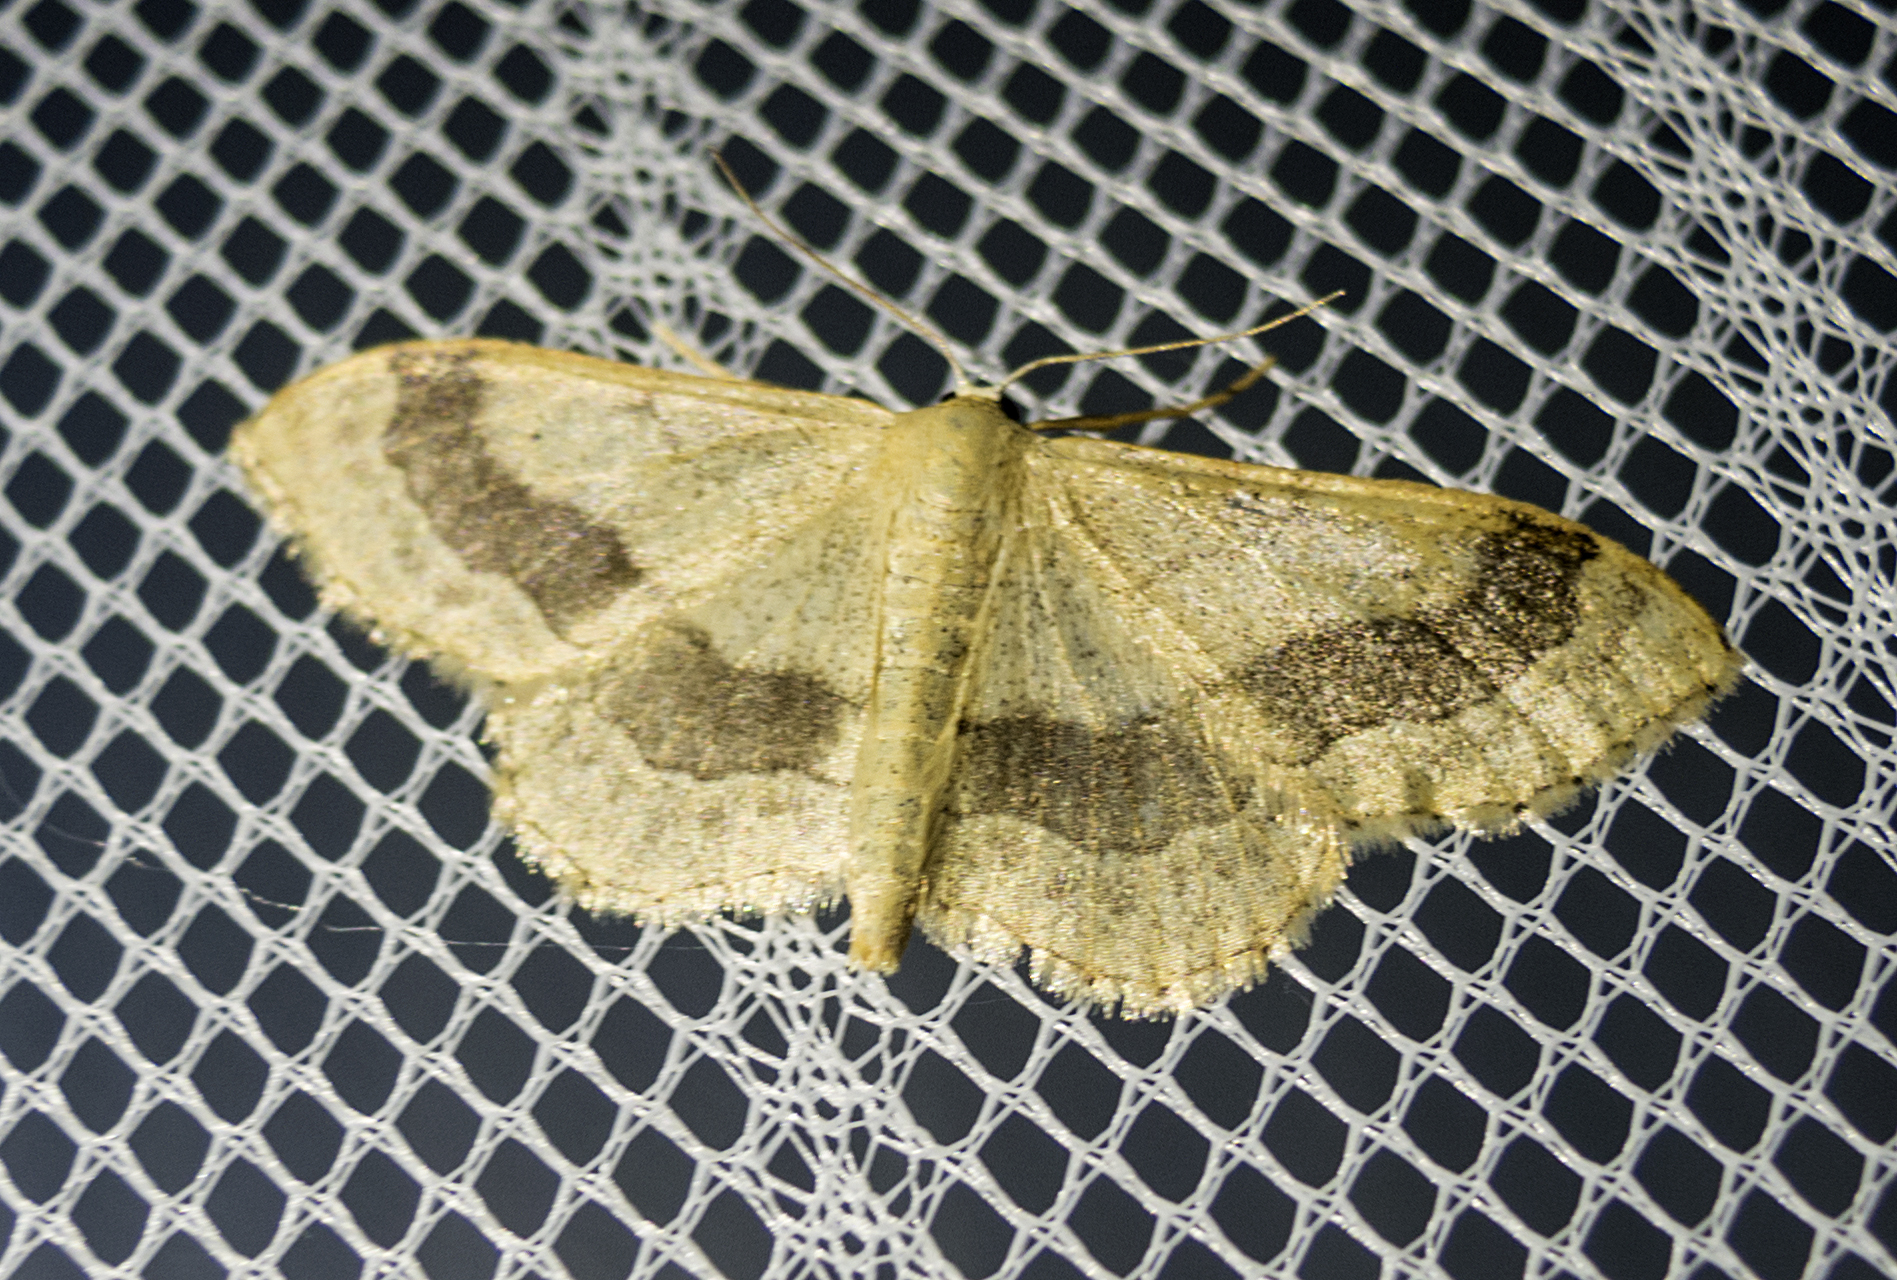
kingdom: Animalia
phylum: Arthropoda
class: Insecta
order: Lepidoptera
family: Geometridae
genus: Idaea
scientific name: Idaea aversata
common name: Riband wave
